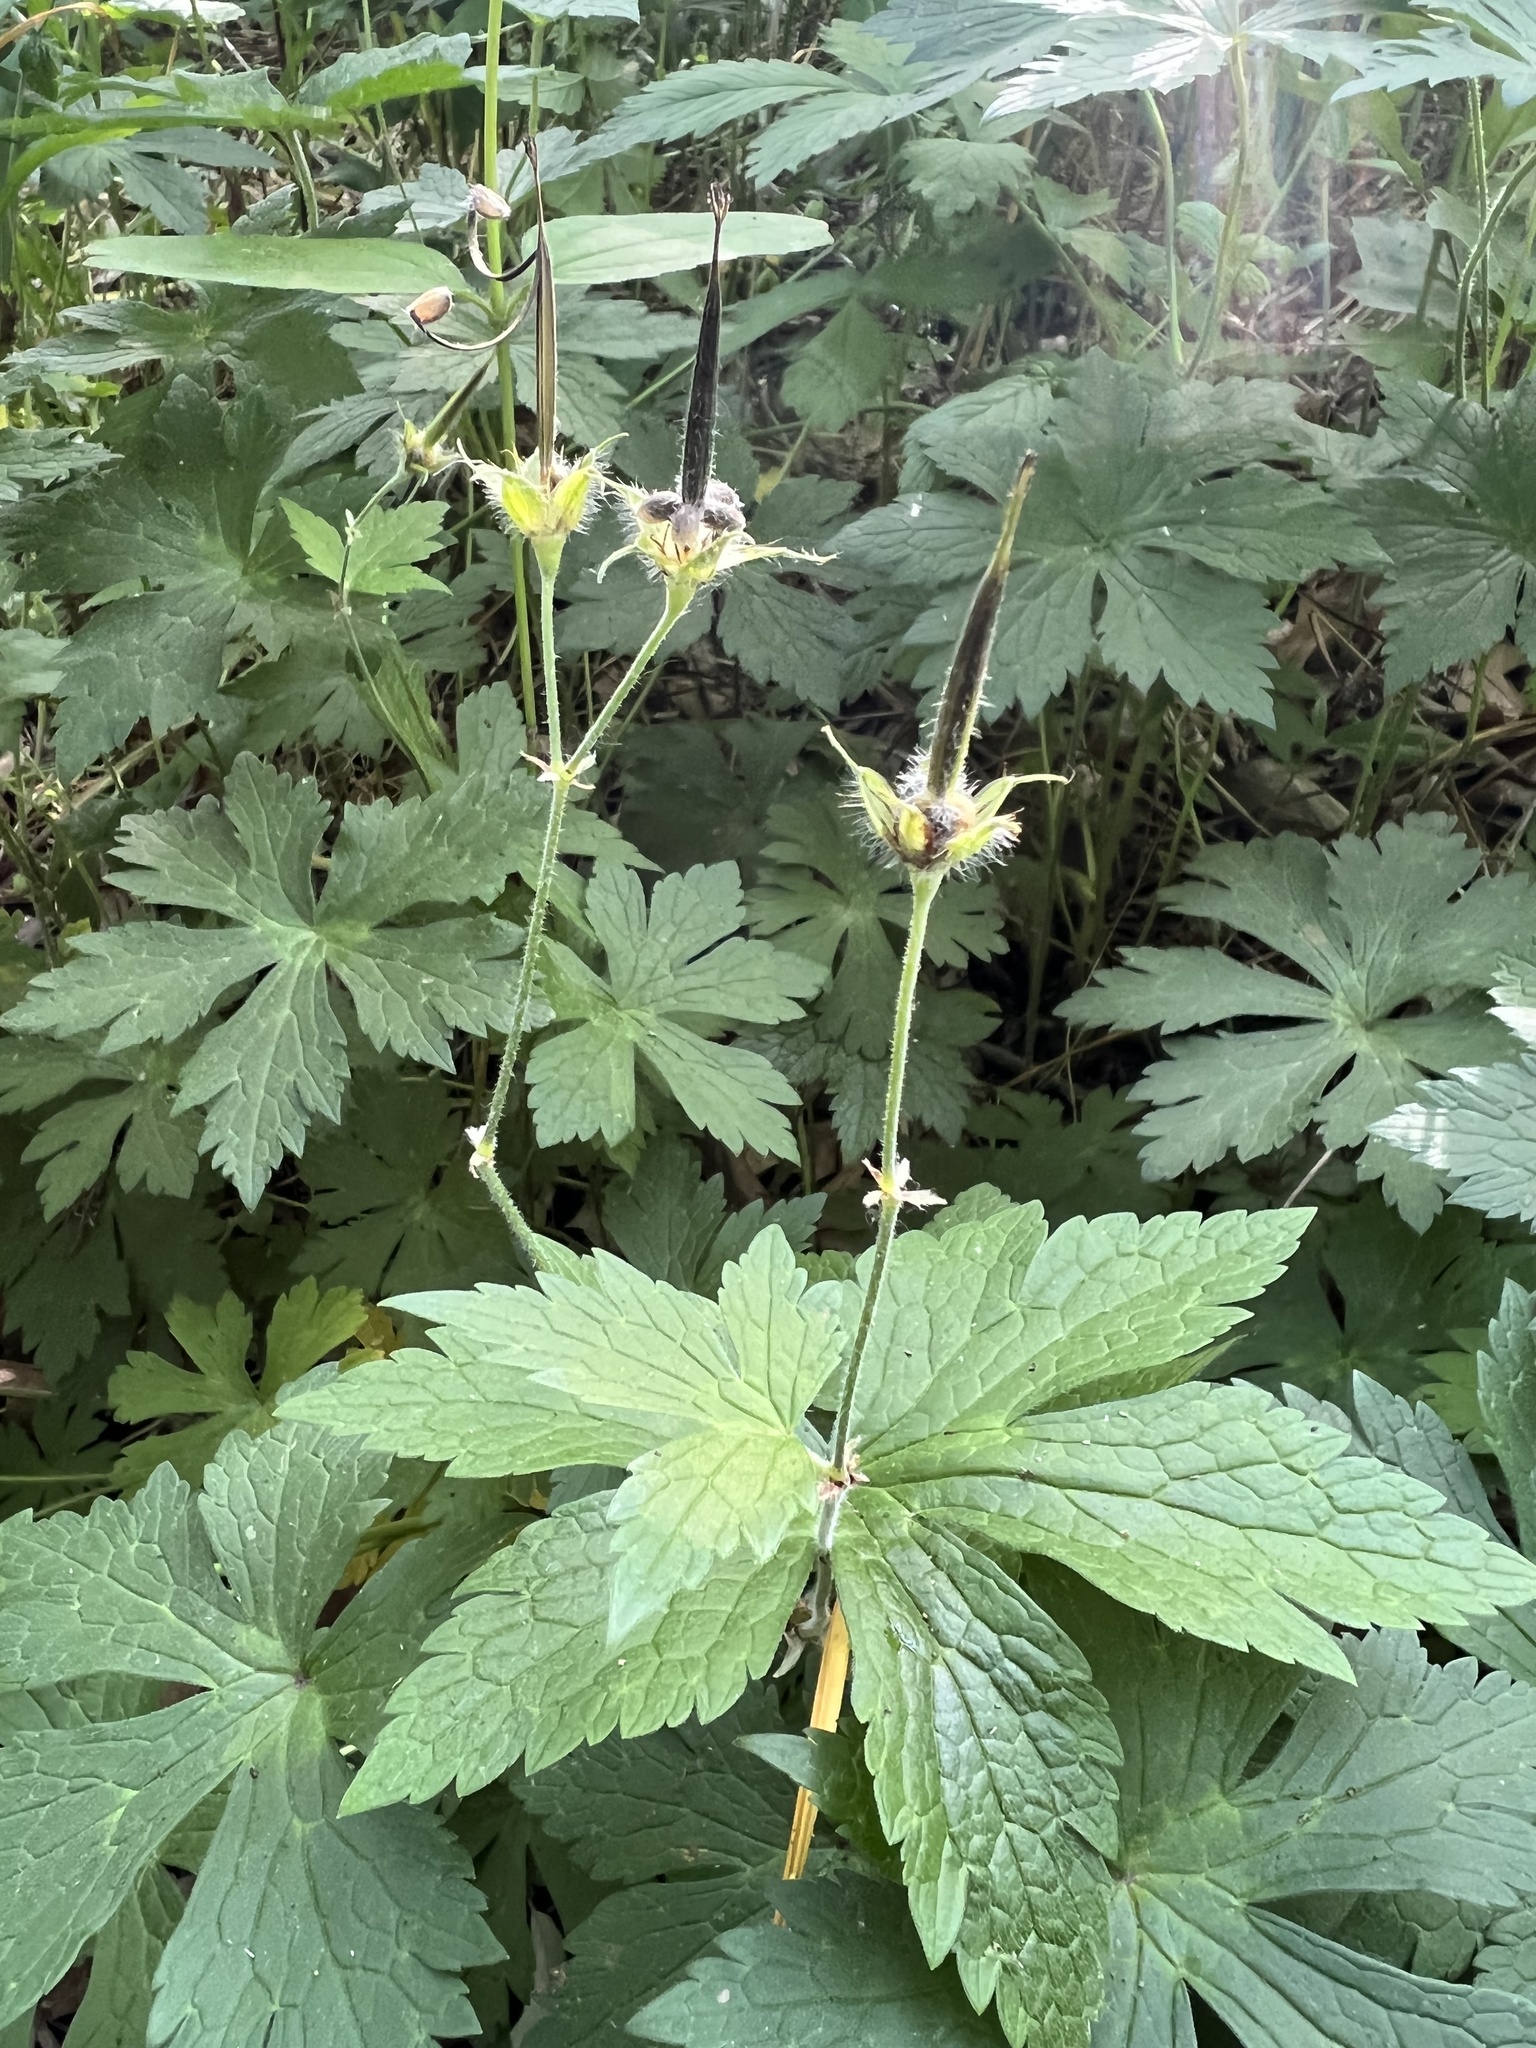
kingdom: Plantae
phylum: Tracheophyta
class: Magnoliopsida
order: Geraniales
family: Geraniaceae
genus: Geranium
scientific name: Geranium maculatum
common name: Spotted geranium
